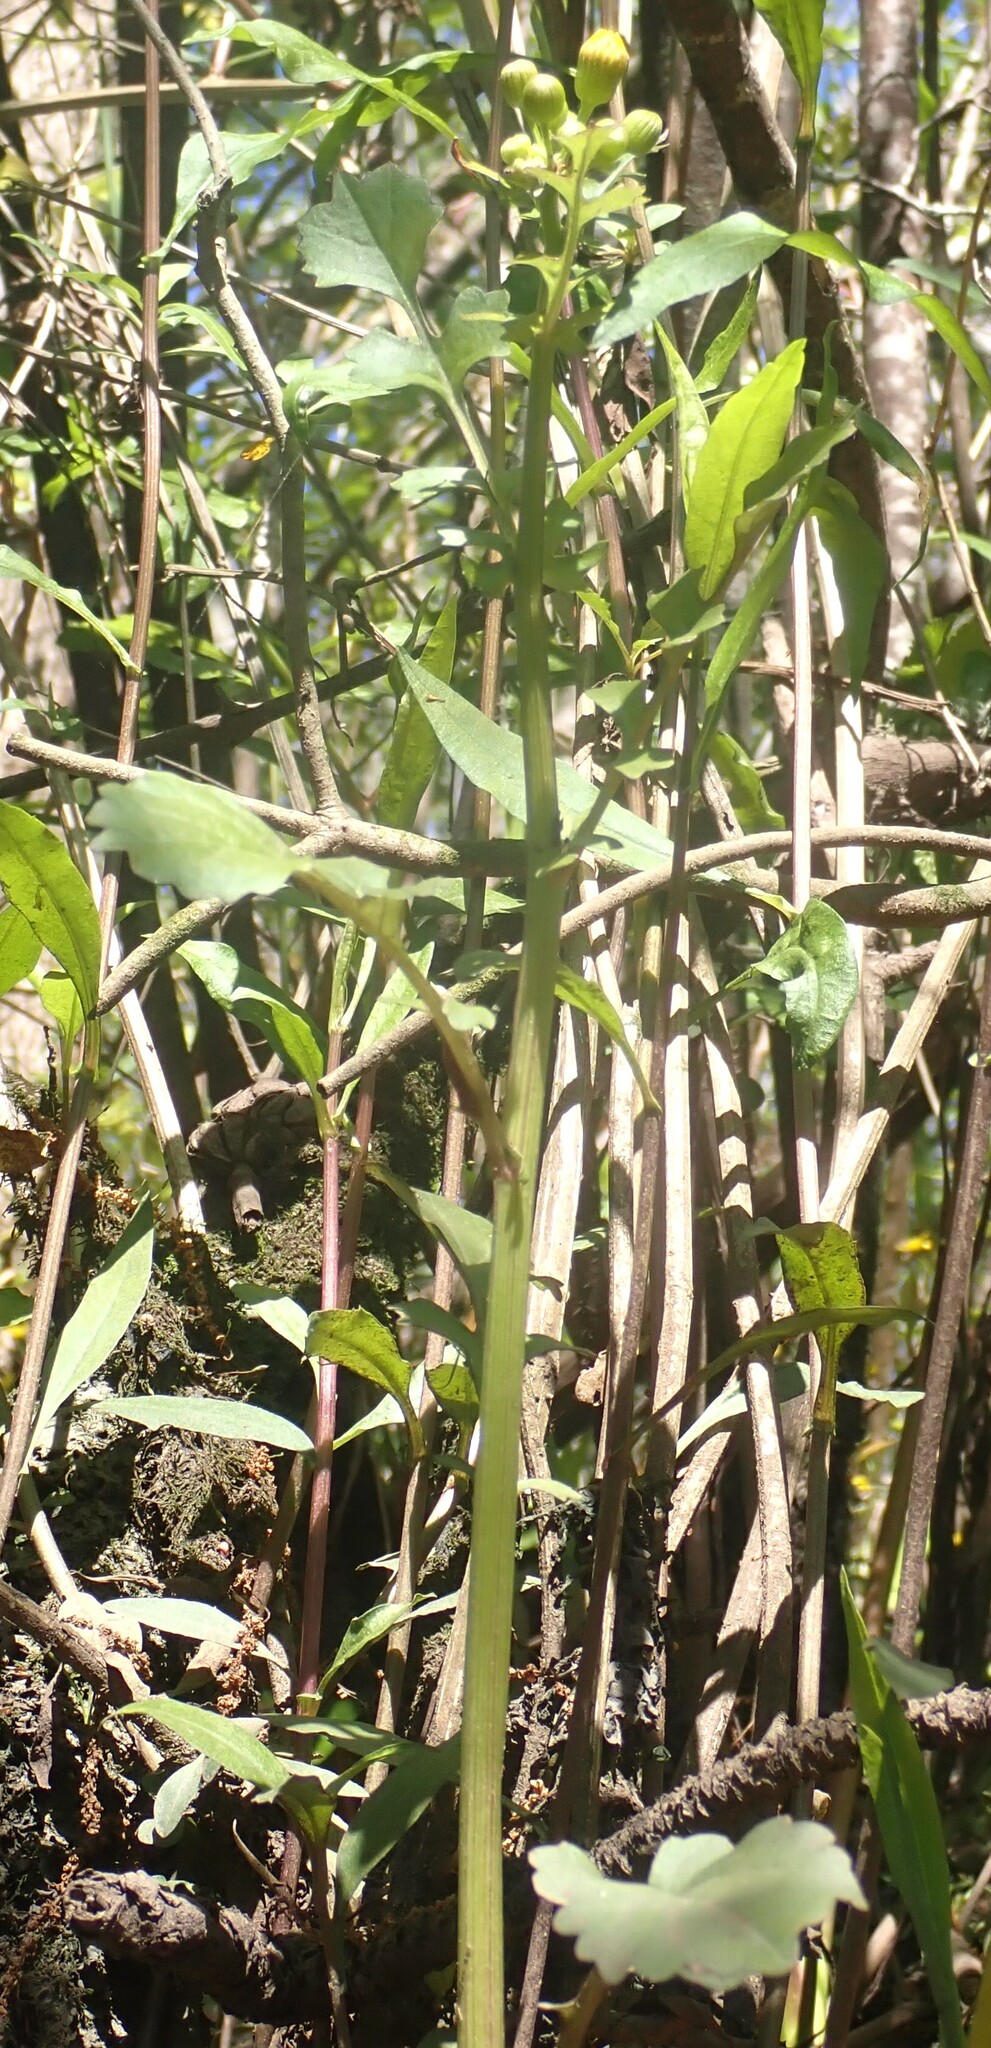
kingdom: Plantae
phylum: Tracheophyta
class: Magnoliopsida
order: Asterales
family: Asteraceae
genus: Packera
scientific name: Packera glabella
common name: Butterweed
